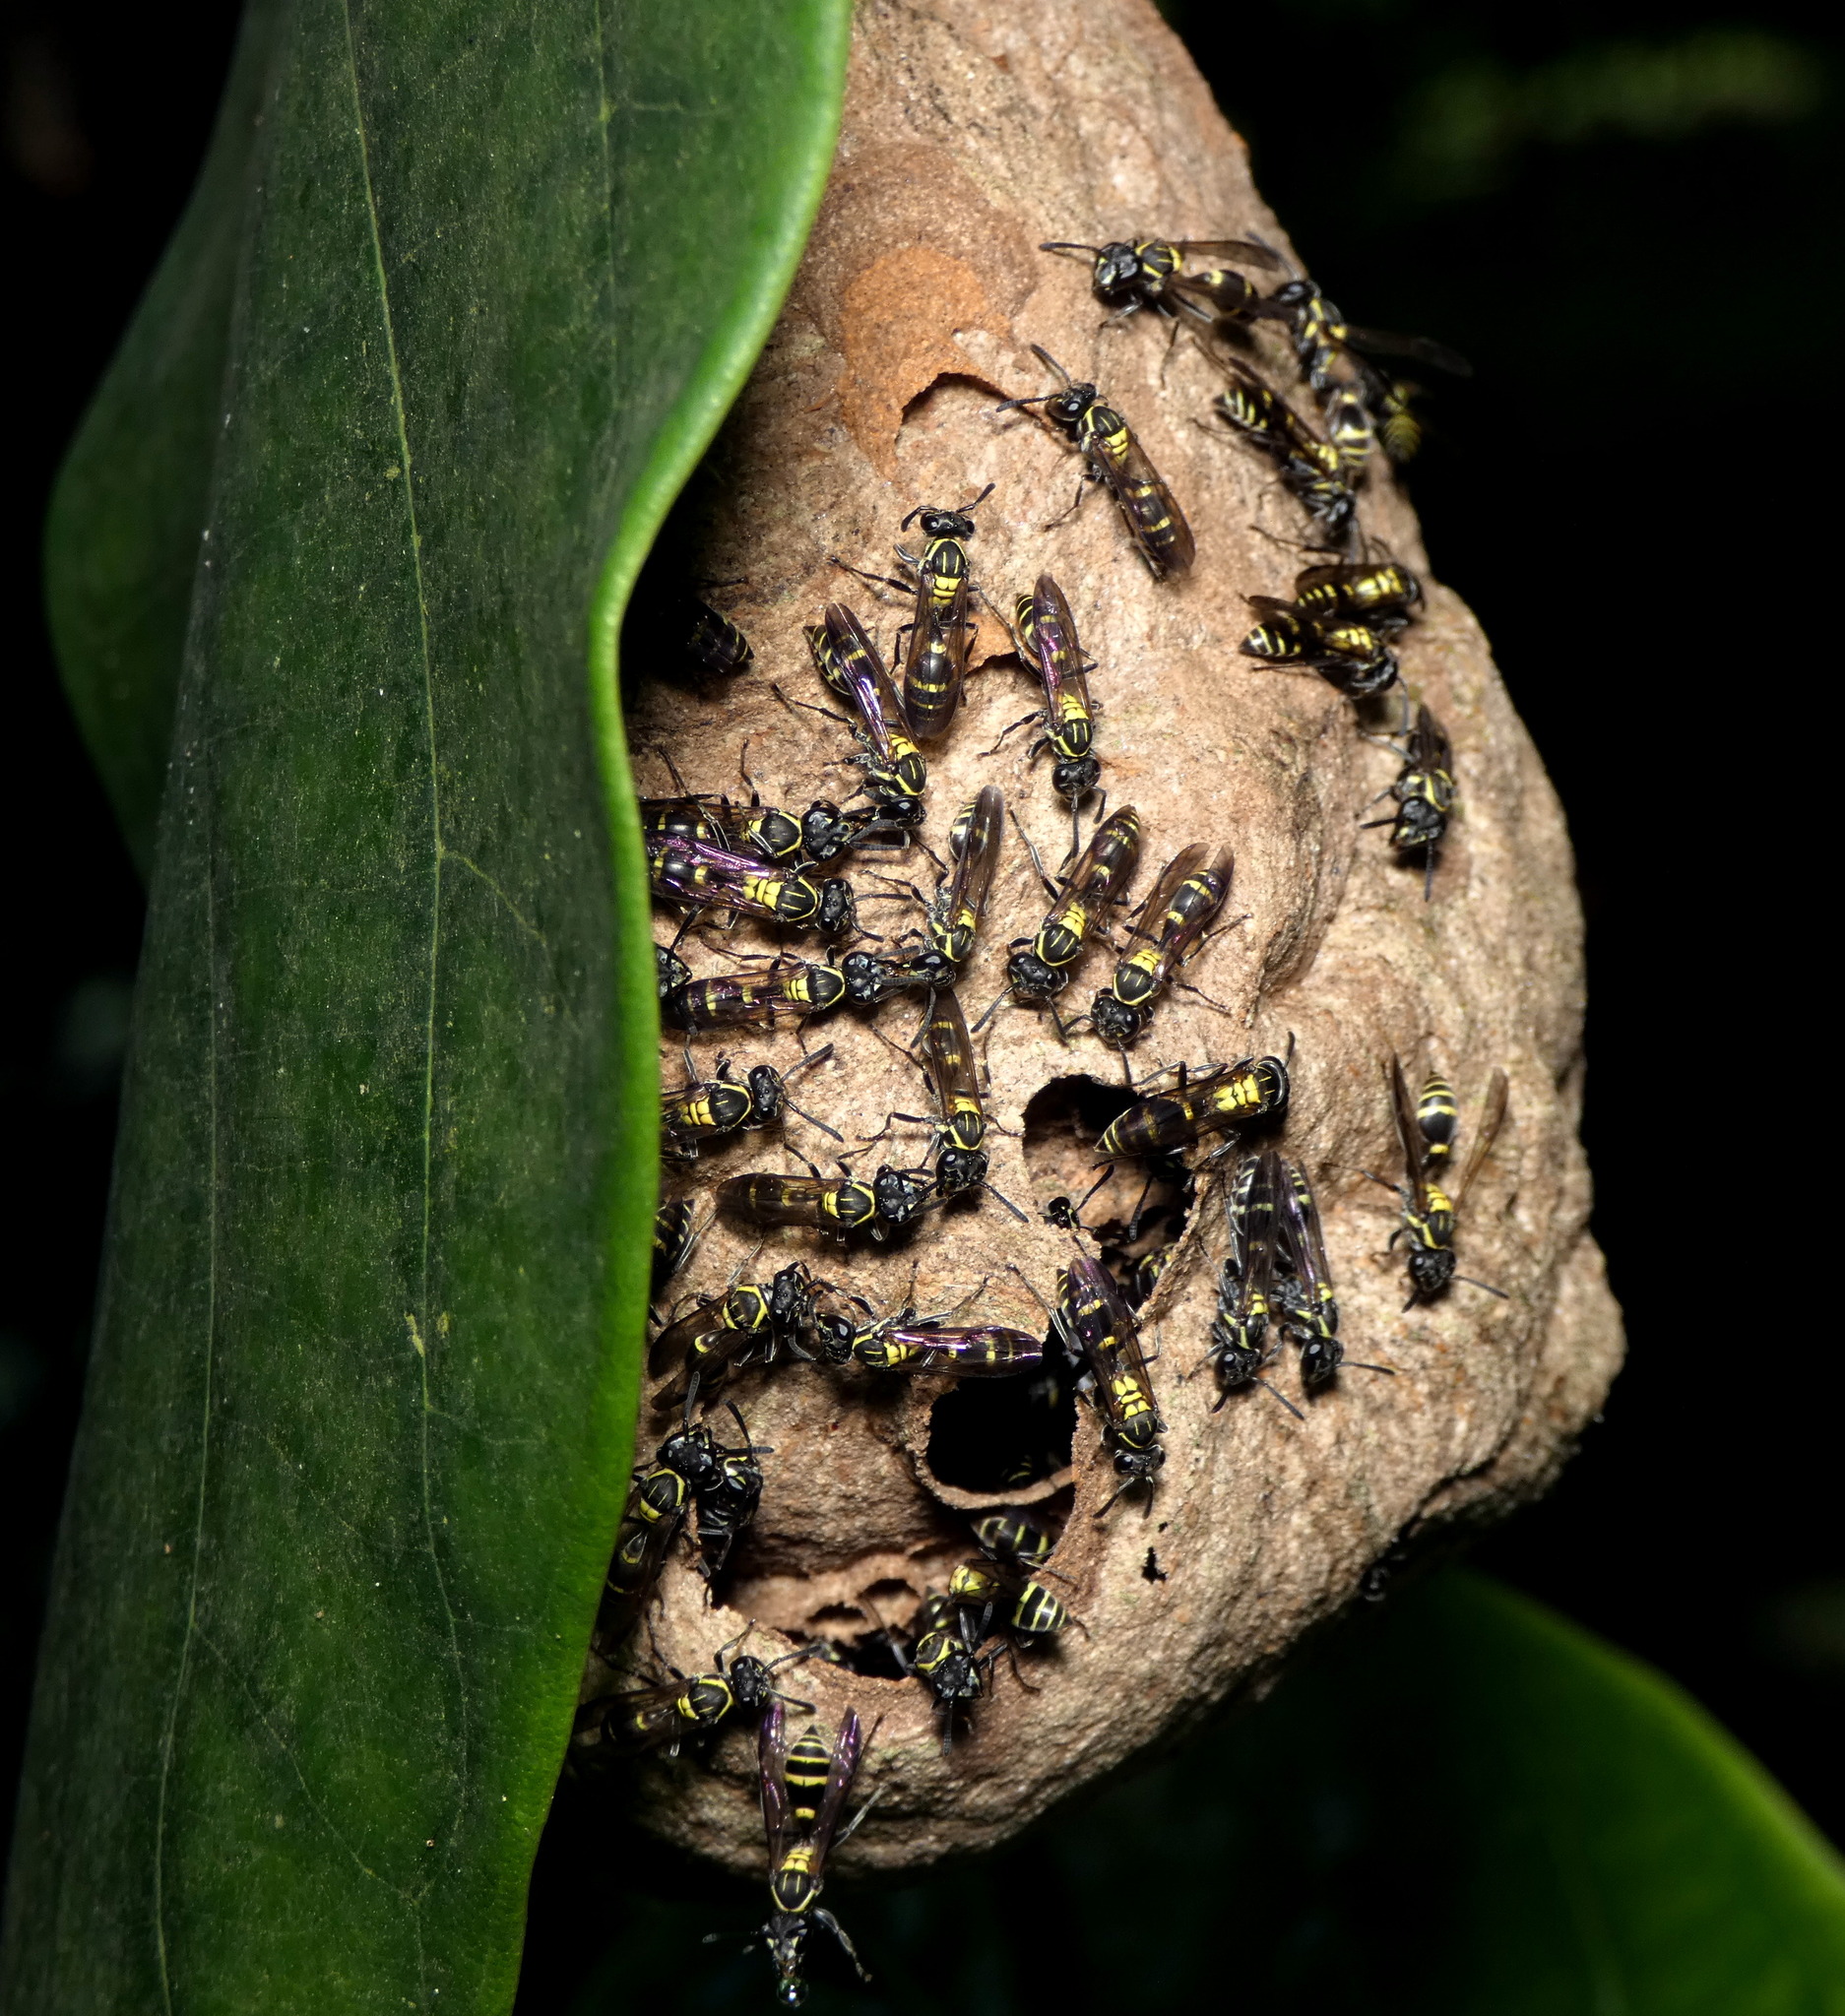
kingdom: Animalia
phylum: Arthropoda
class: Insecta
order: Hymenoptera
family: Eumenidae
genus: Polybia
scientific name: Polybia occidentalis
